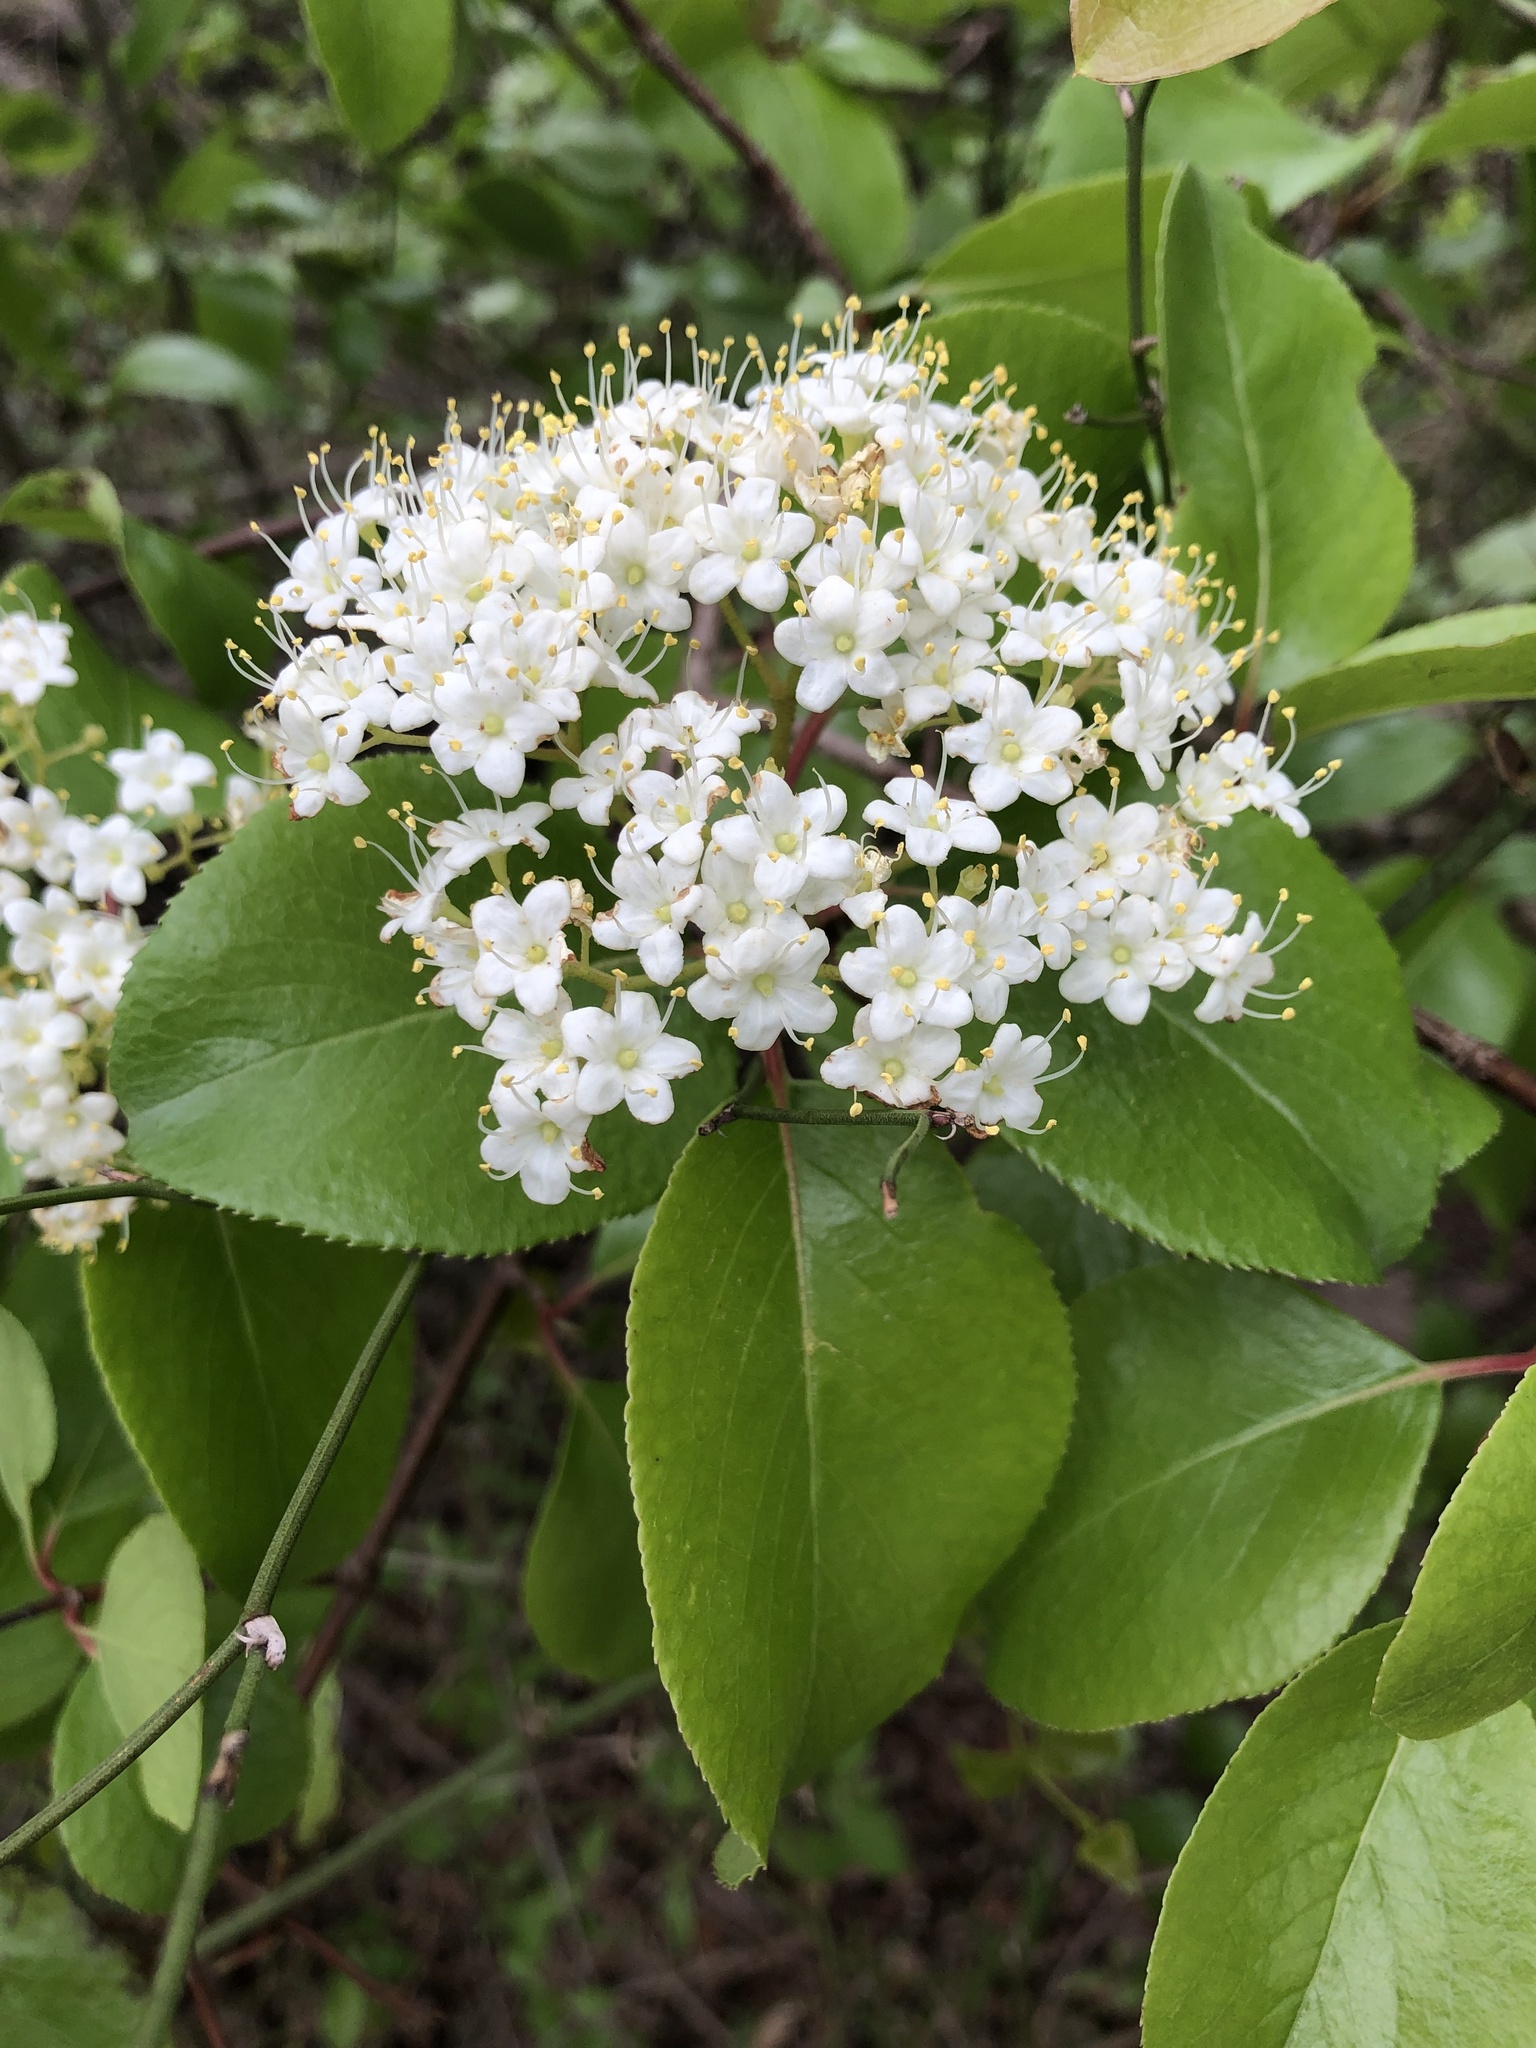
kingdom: Plantae
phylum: Tracheophyta
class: Magnoliopsida
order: Dipsacales
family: Viburnaceae
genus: Viburnum
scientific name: Viburnum rufidulum
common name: Blue haw
